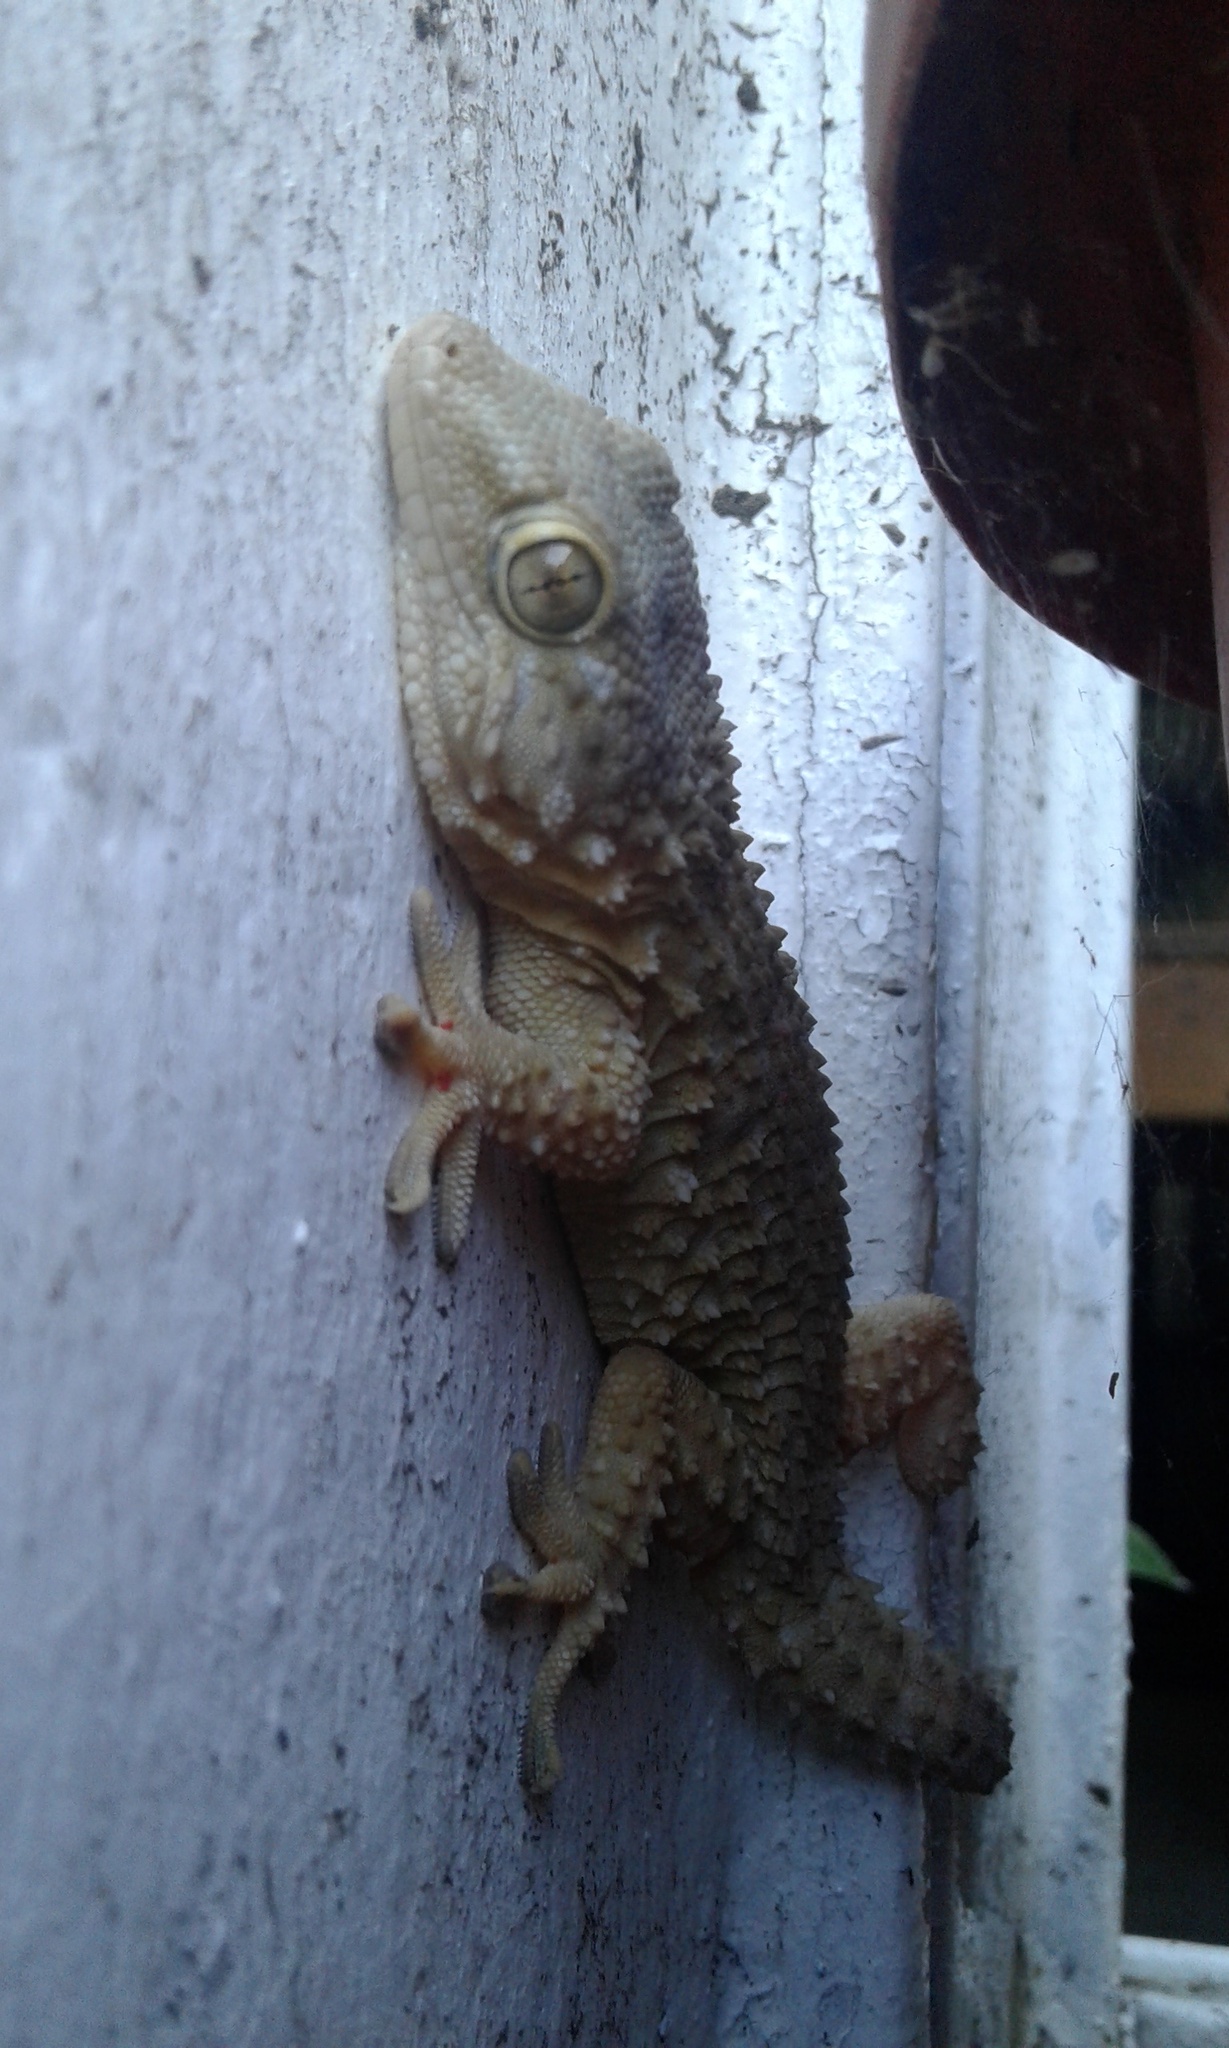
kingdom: Animalia
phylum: Chordata
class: Squamata
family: Phyllodactylidae
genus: Tarentola
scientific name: Tarentola mauritanica
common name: Moorish gecko
